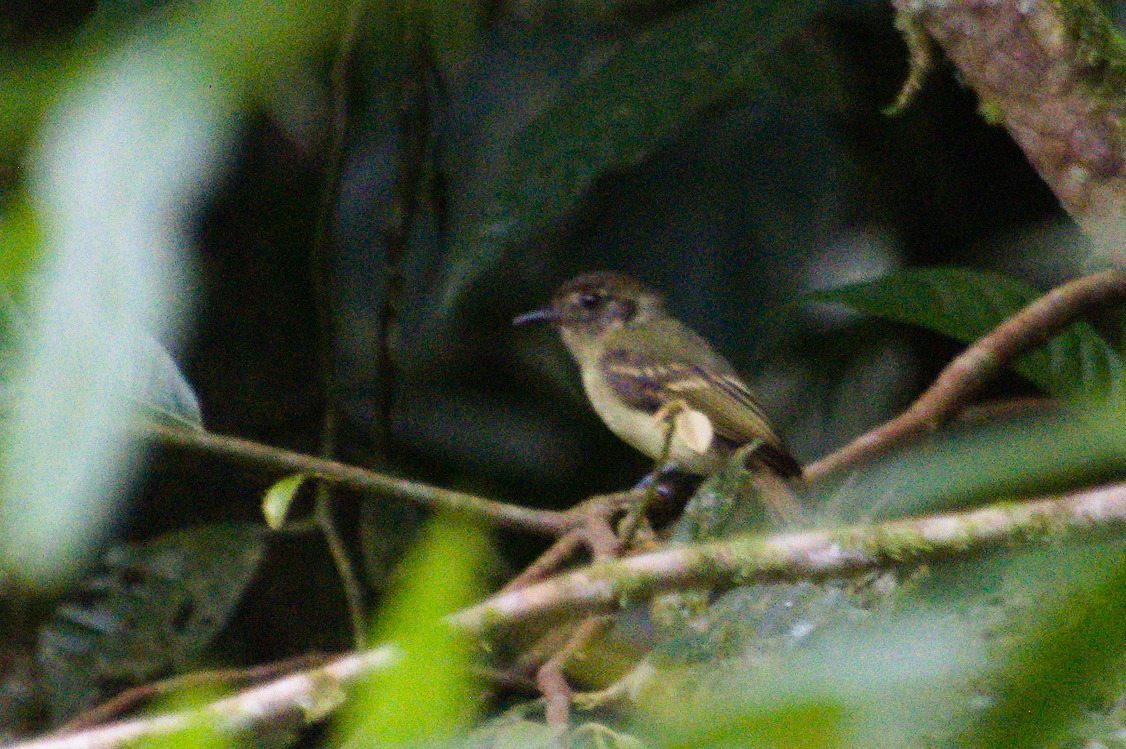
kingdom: Animalia
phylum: Chordata
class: Aves
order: Passeriformes
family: Tyrannidae
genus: Leptopogon
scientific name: Leptopogon amaurocephalus
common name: Sepia-capped flycatcher
